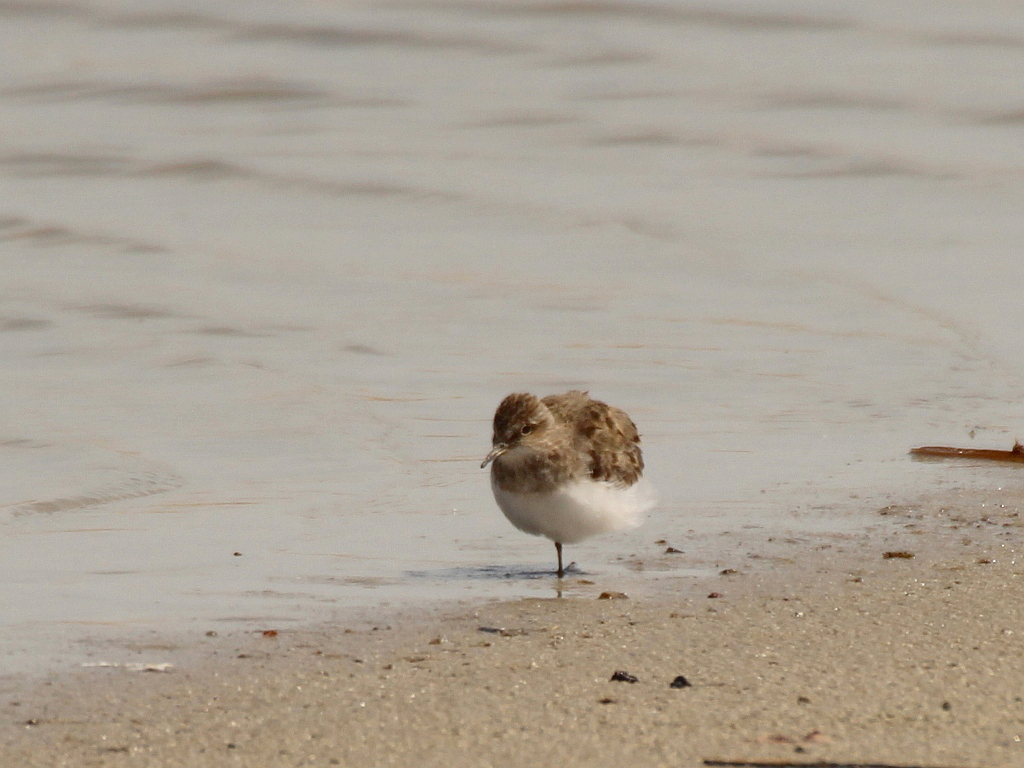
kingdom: Animalia
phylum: Chordata
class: Aves
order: Charadriiformes
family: Scolopacidae
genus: Calidris
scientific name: Calidris temminckii
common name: Temminck's stint
